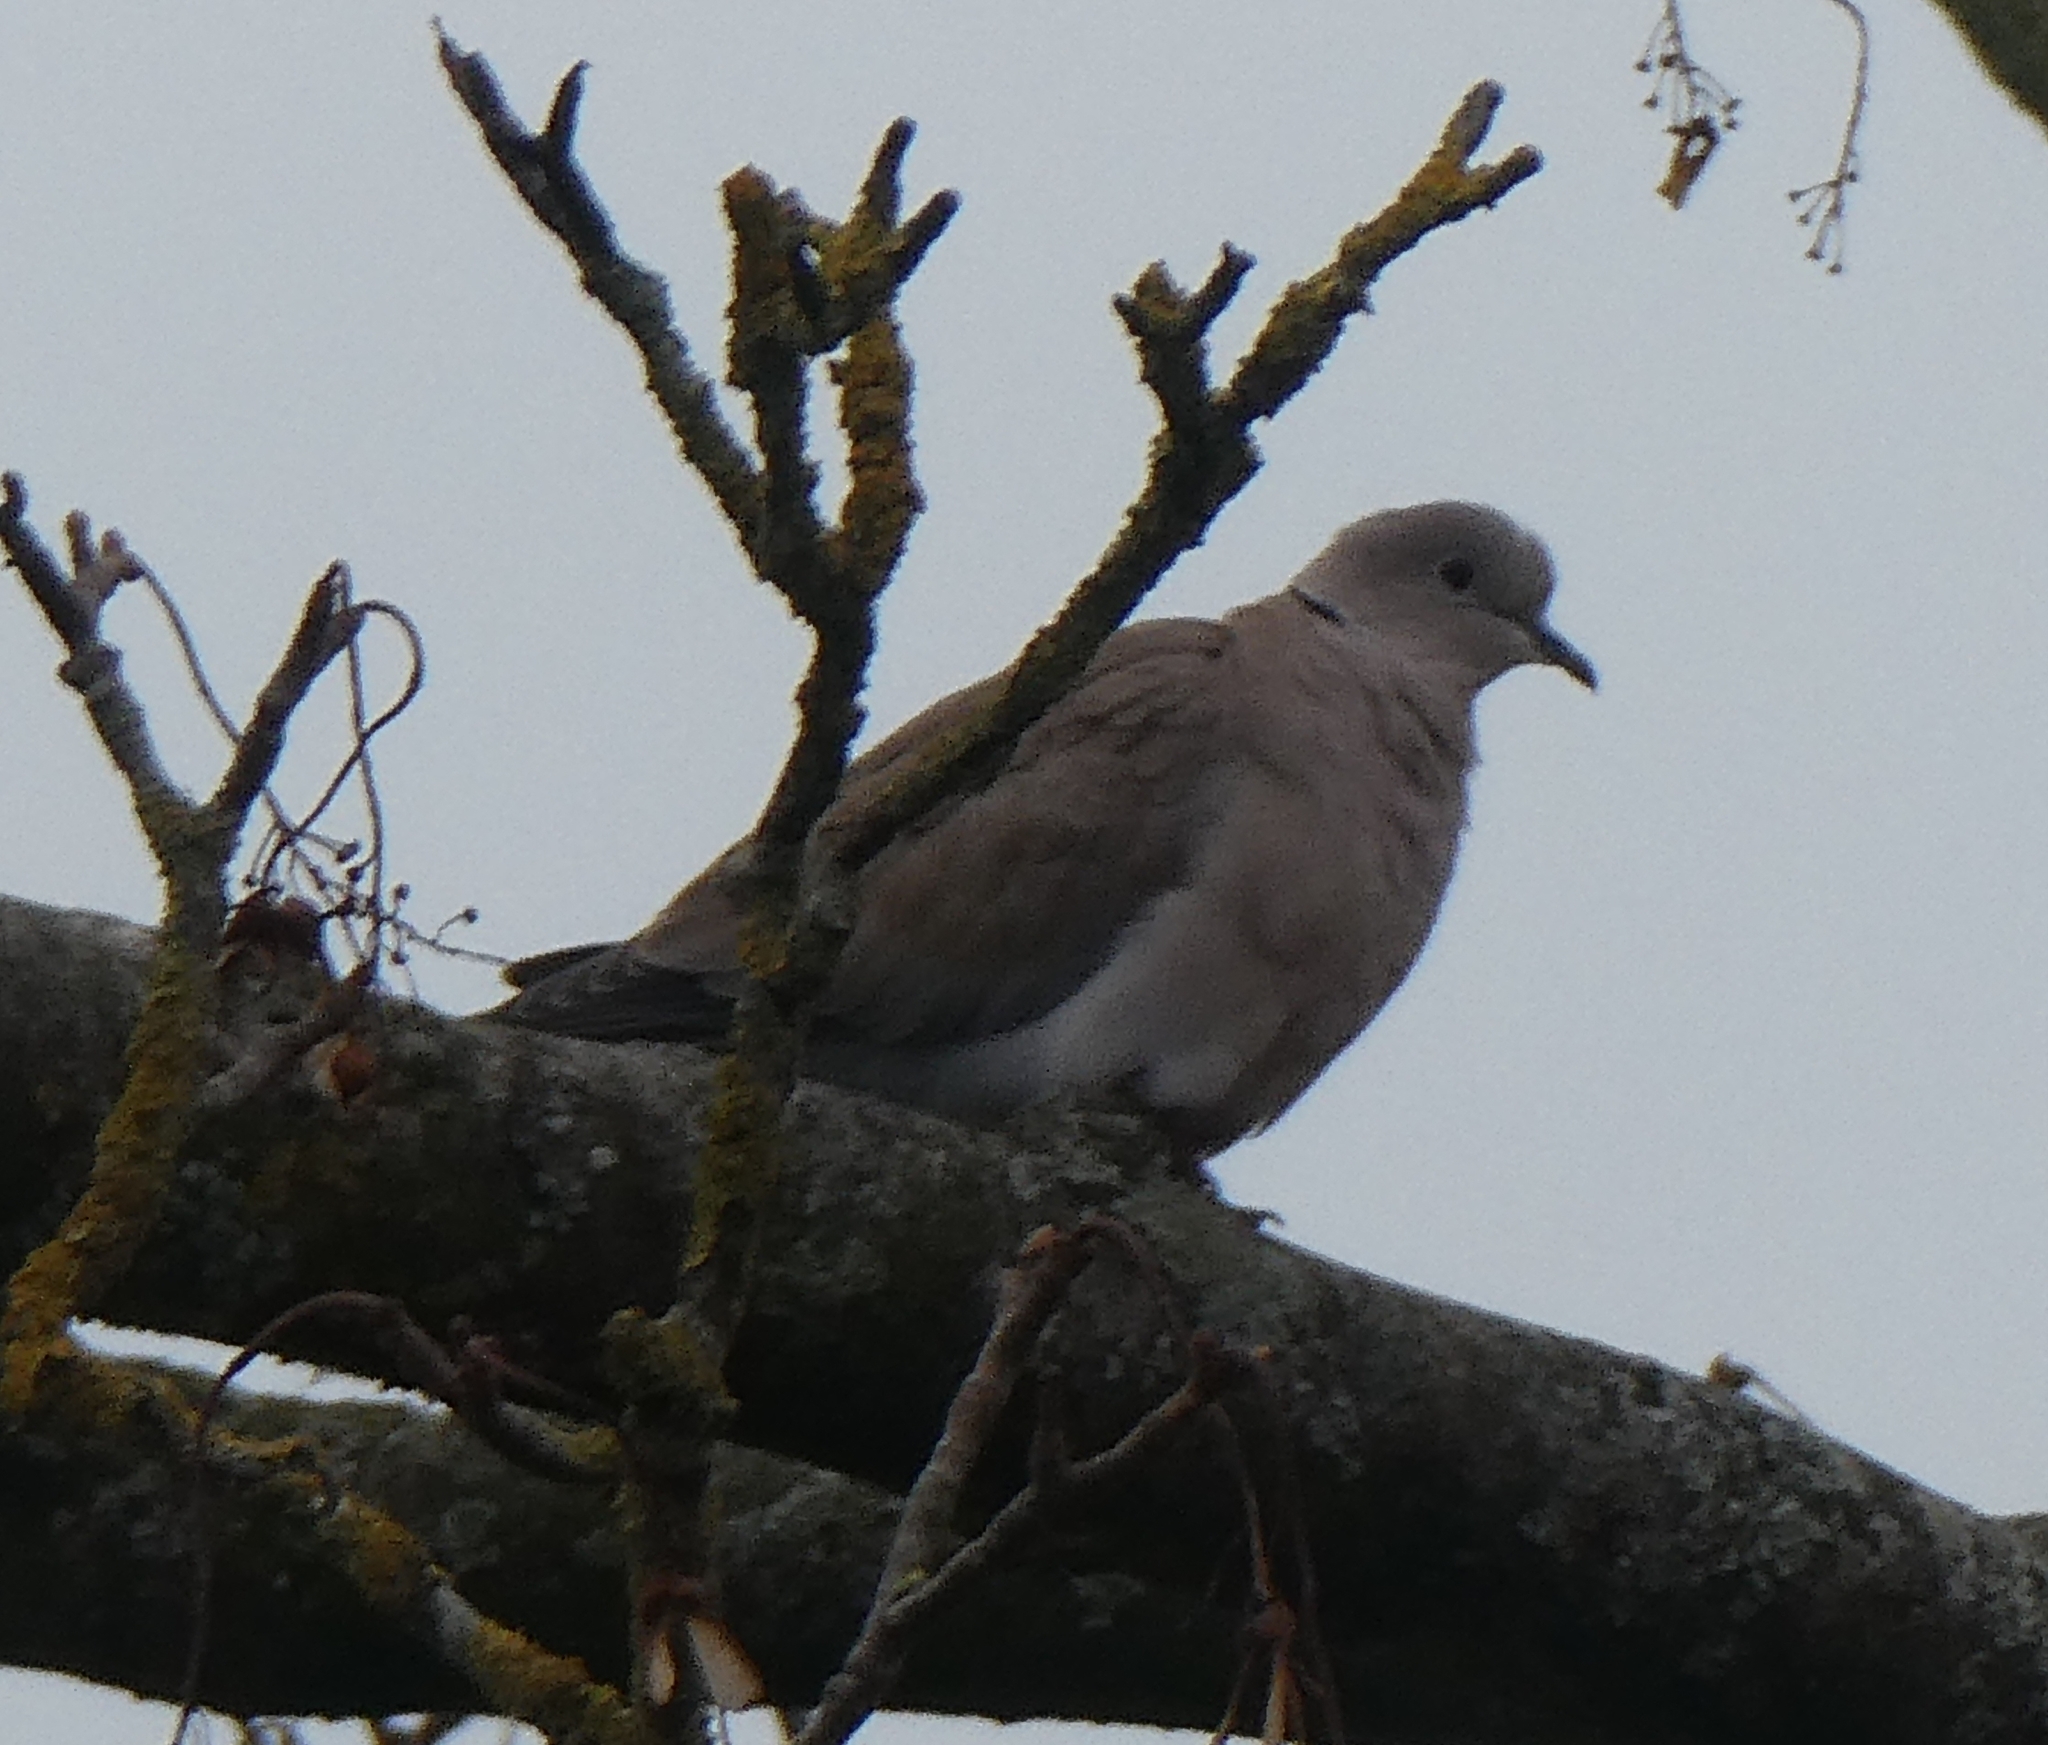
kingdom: Animalia
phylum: Chordata
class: Aves
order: Columbiformes
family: Columbidae
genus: Streptopelia
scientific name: Streptopelia decaocto
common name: Eurasian collared dove
